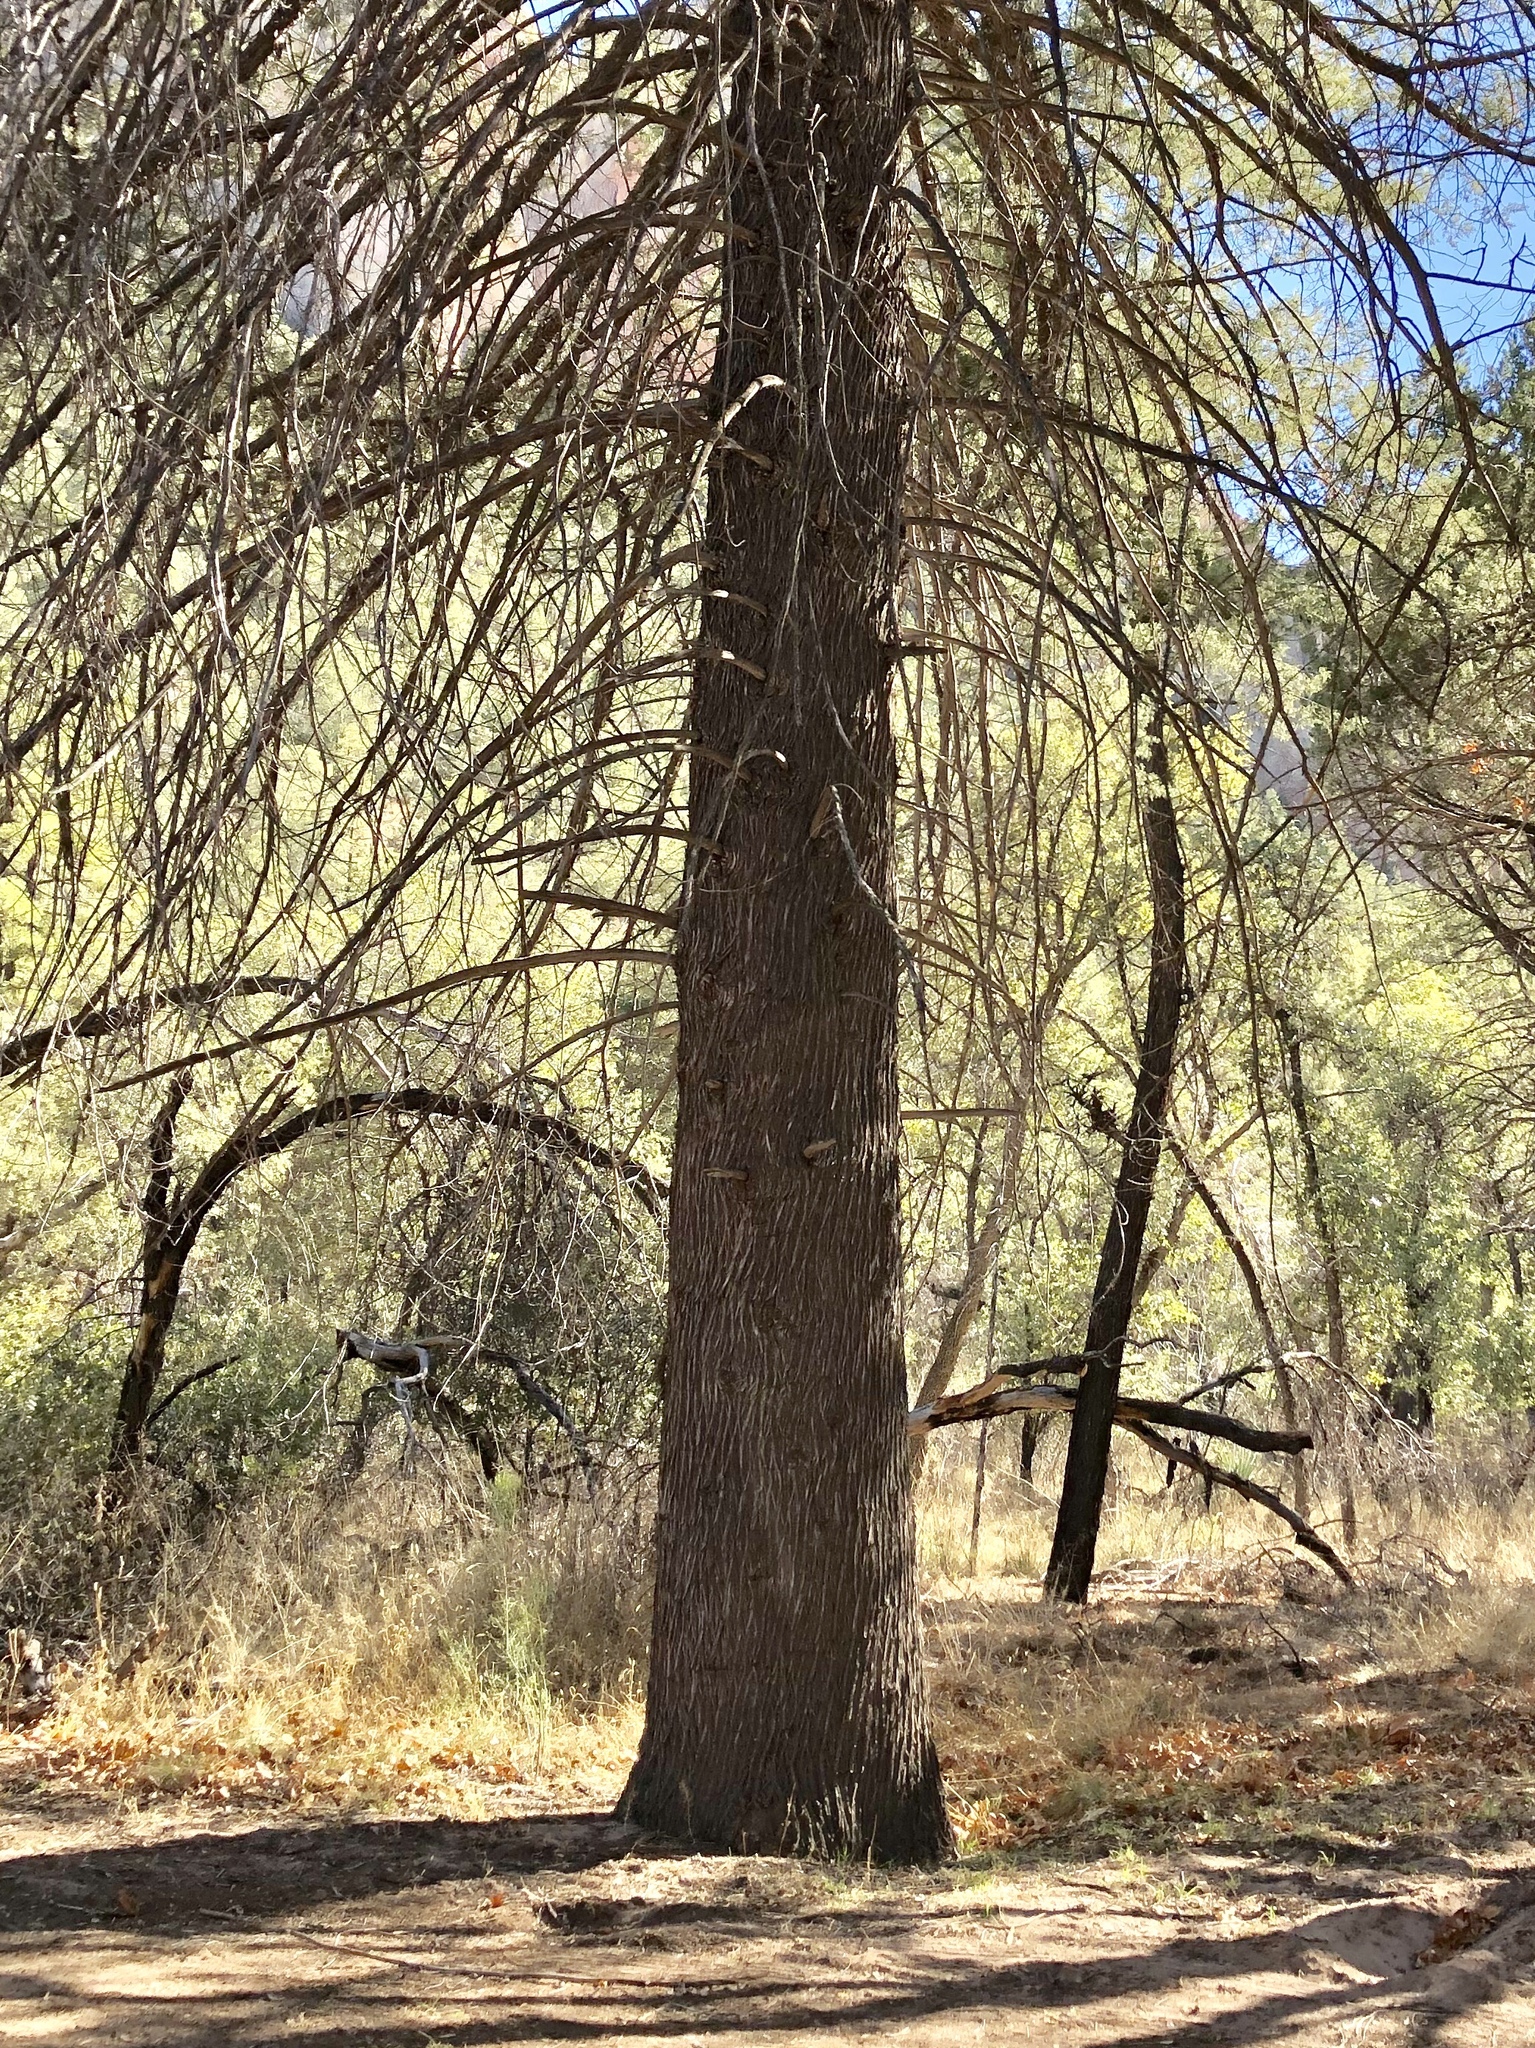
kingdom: Plantae
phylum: Tracheophyta
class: Pinopsida
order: Pinales
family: Cupressaceae
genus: Cupressus
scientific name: Cupressus arizonica
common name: Arizona cypress
